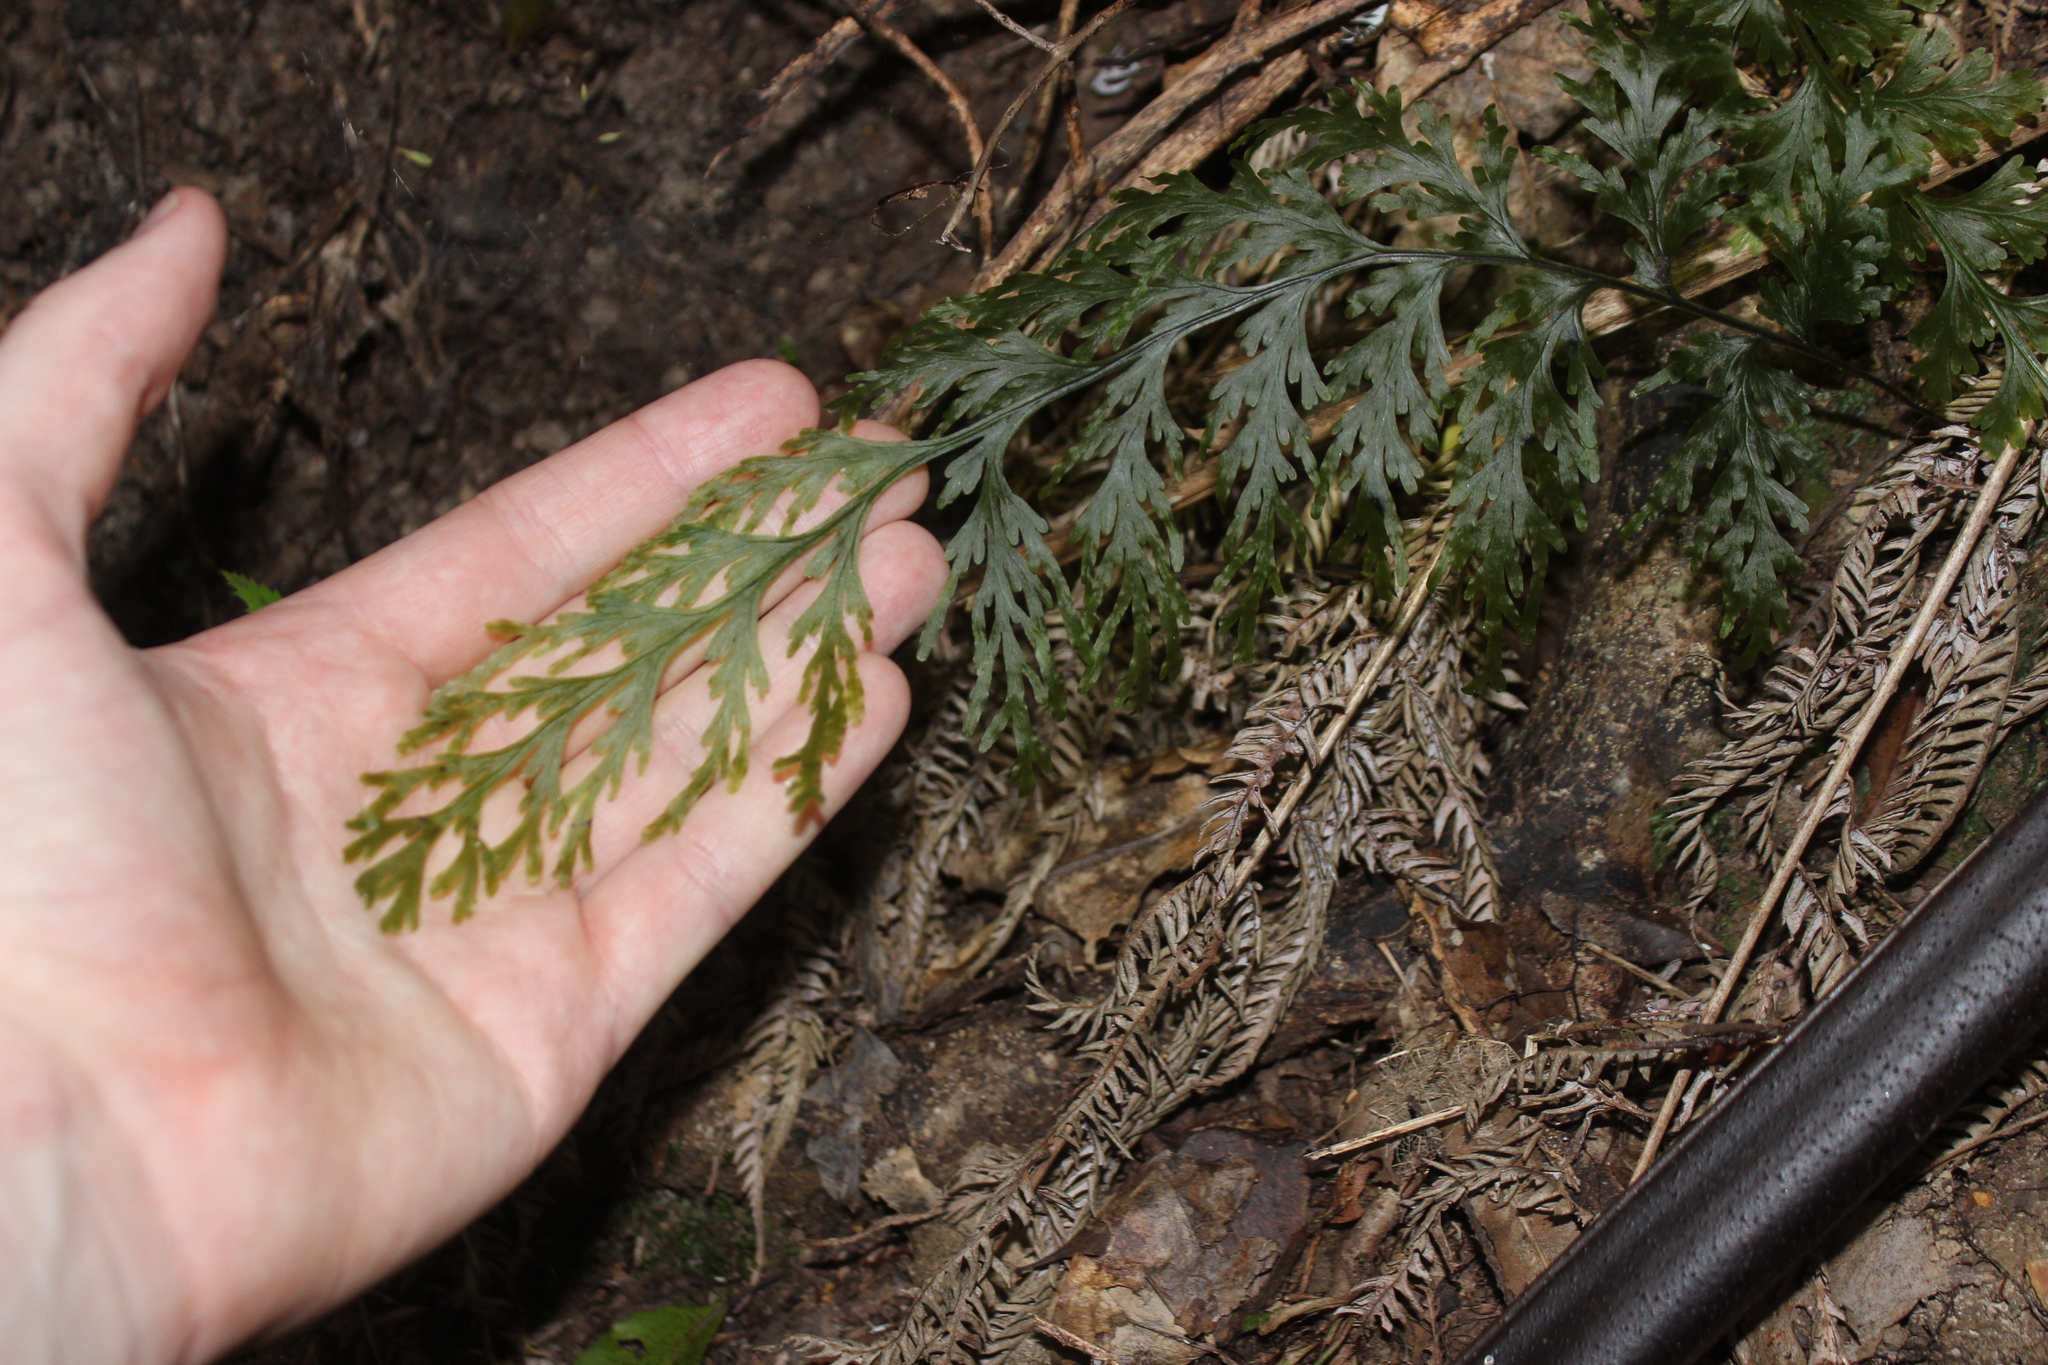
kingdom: Plantae
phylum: Tracheophyta
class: Polypodiopsida
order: Hymenophyllales
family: Hymenophyllaceae
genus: Hymenophyllum
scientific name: Hymenophyllum dilatatum
